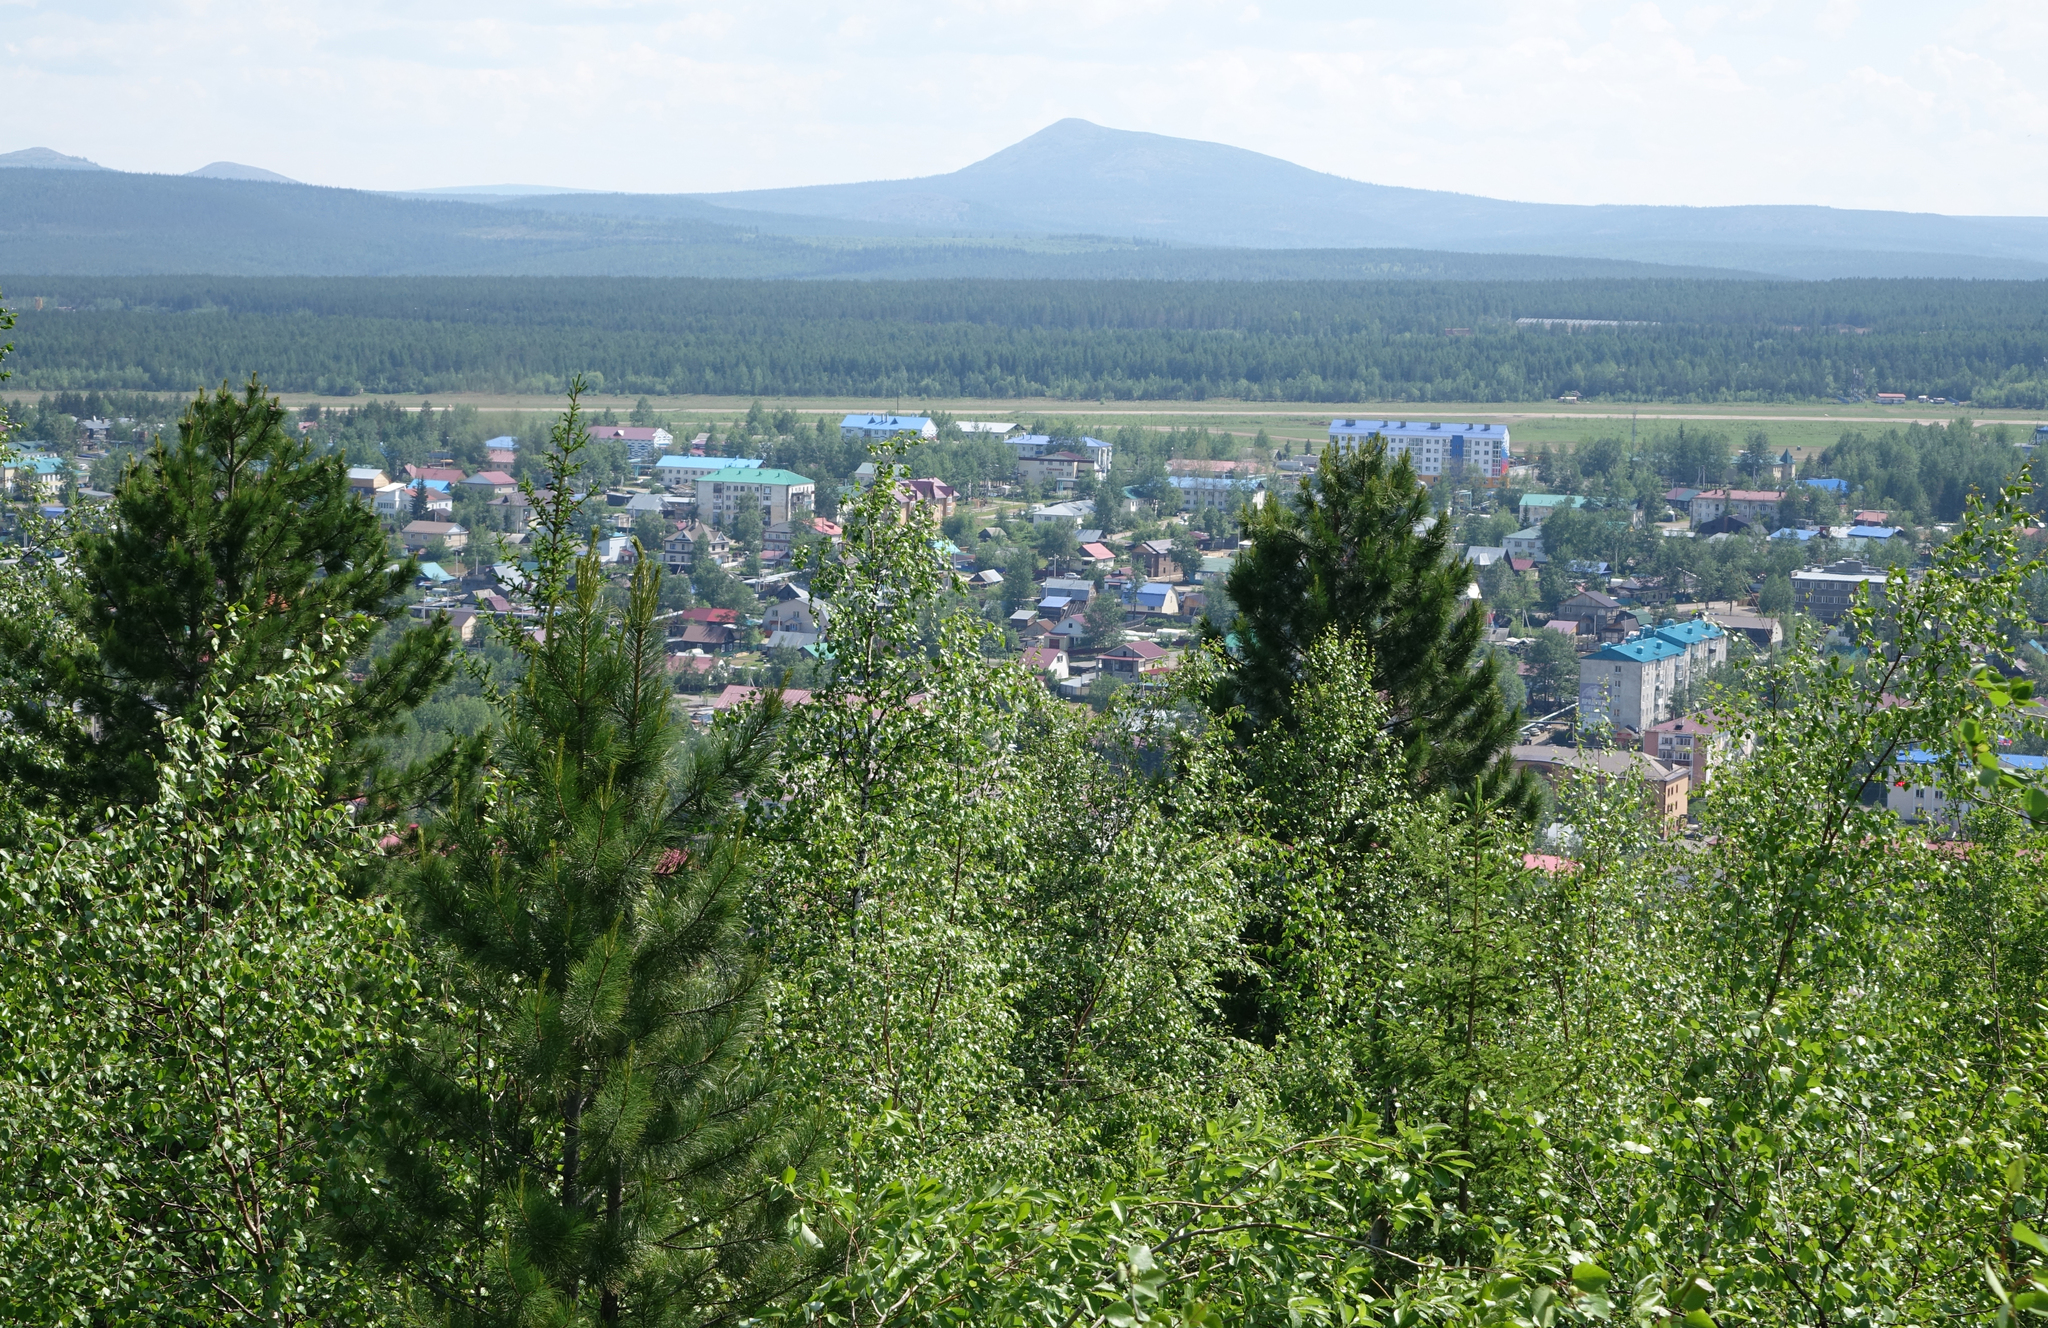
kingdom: Plantae
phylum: Tracheophyta
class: Pinopsida
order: Pinales
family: Pinaceae
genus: Pinus
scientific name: Pinus sibirica
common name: Siberian pine
